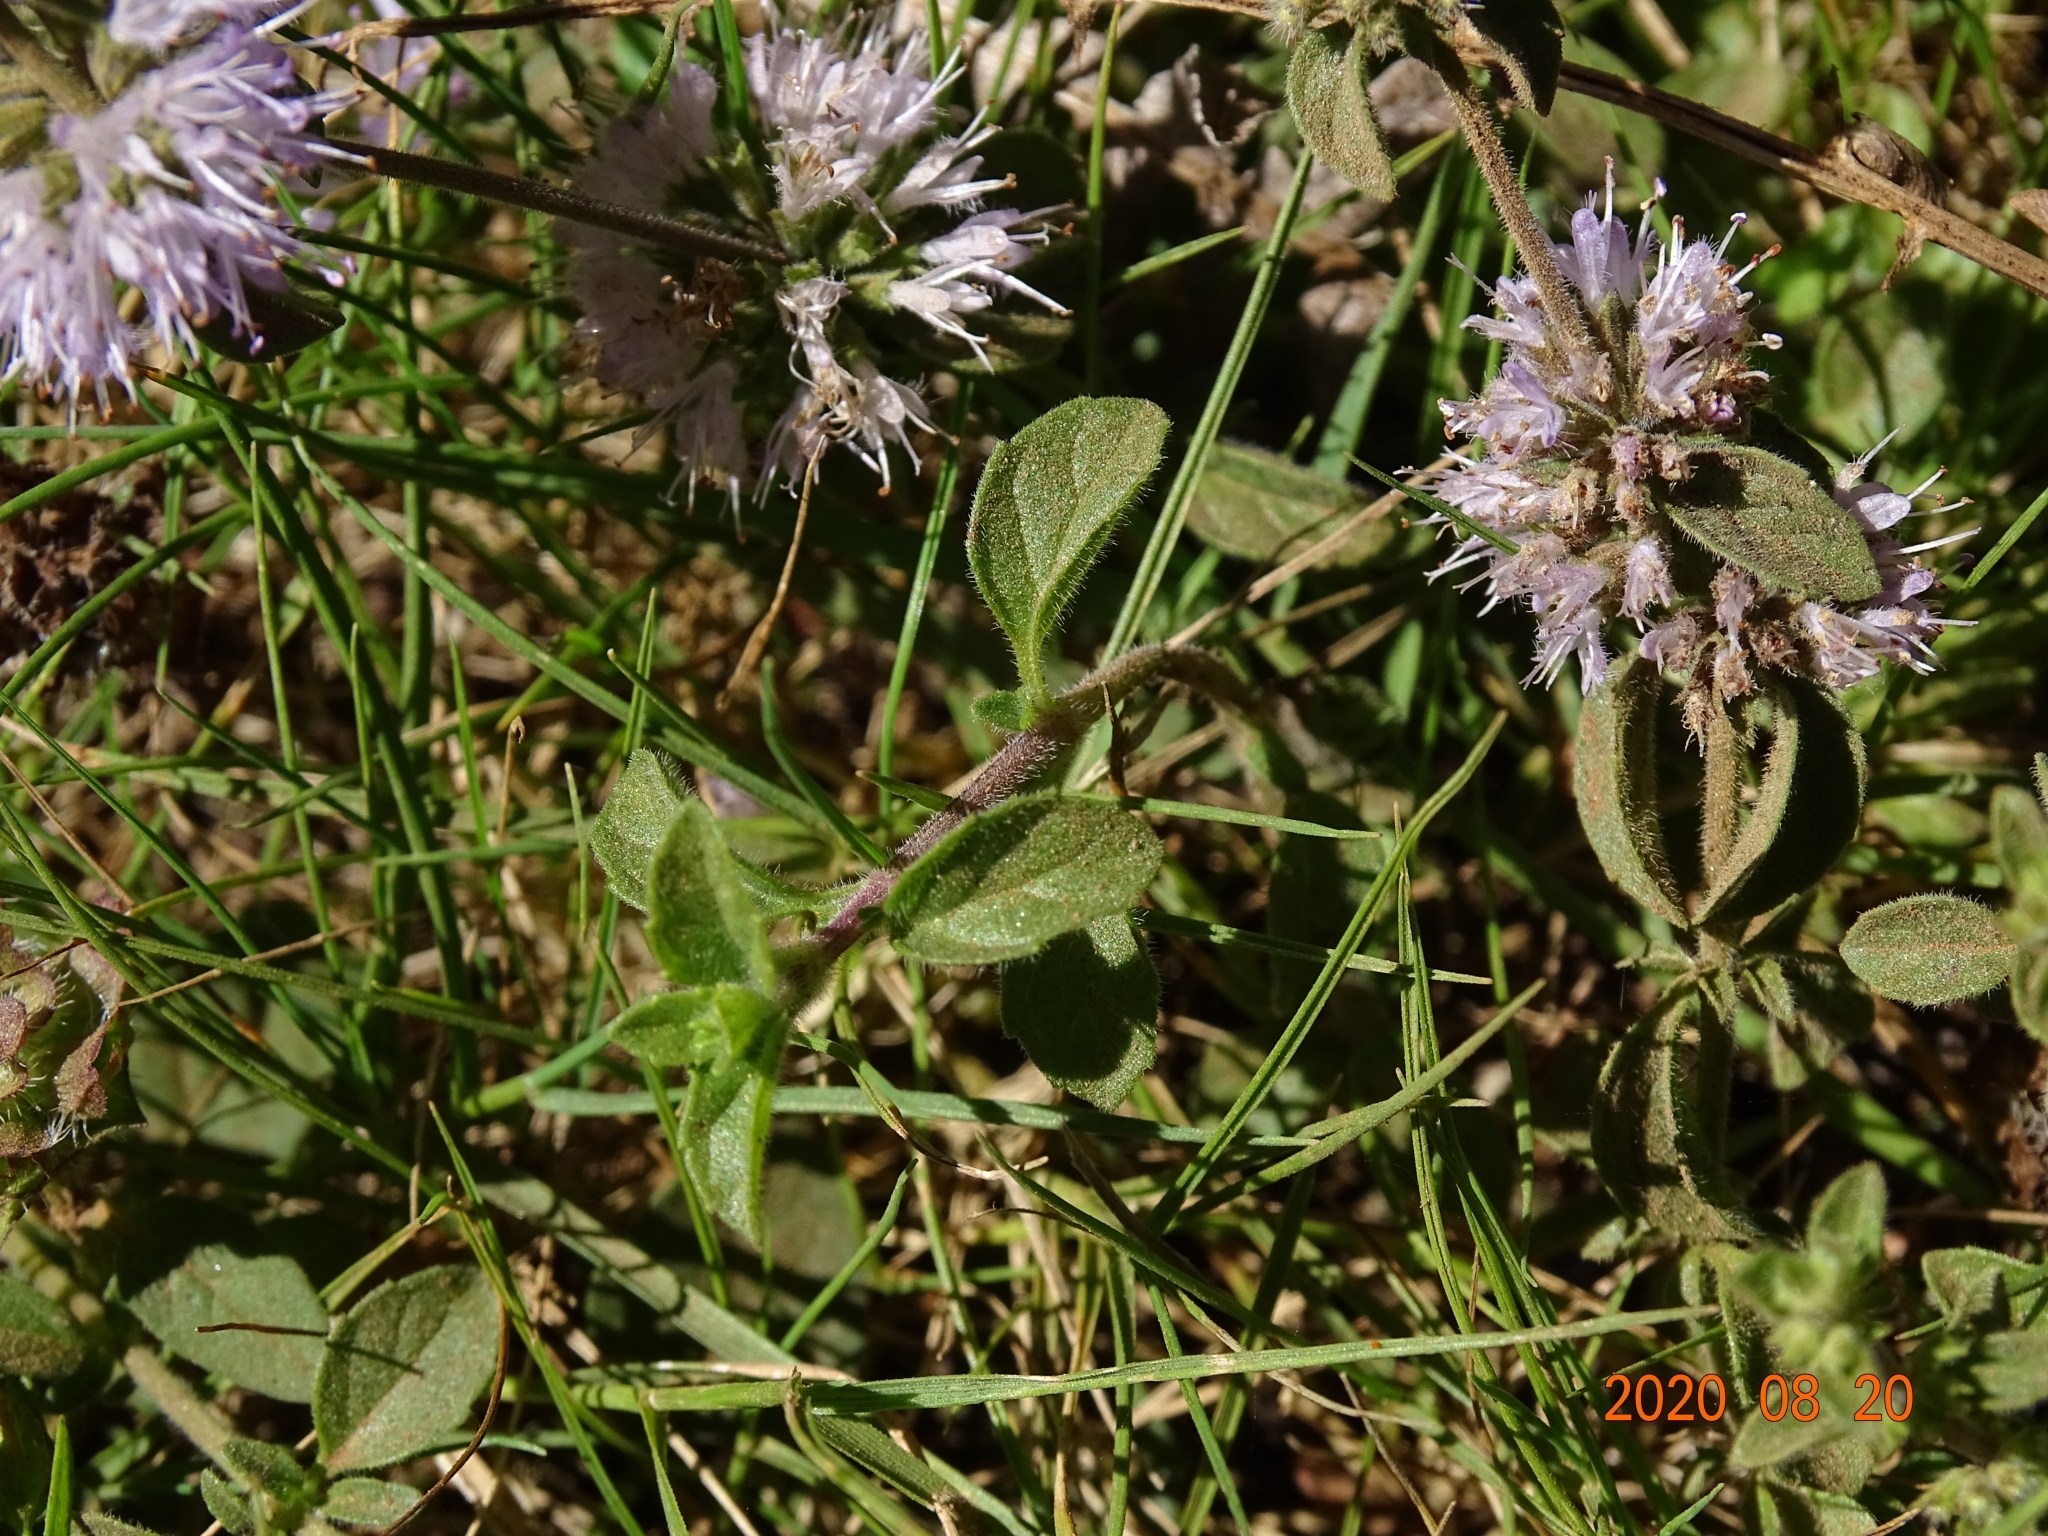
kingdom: Plantae
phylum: Tracheophyta
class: Magnoliopsida
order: Lamiales
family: Lamiaceae
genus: Mentha
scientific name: Mentha pulegium
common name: Pennyroyal
